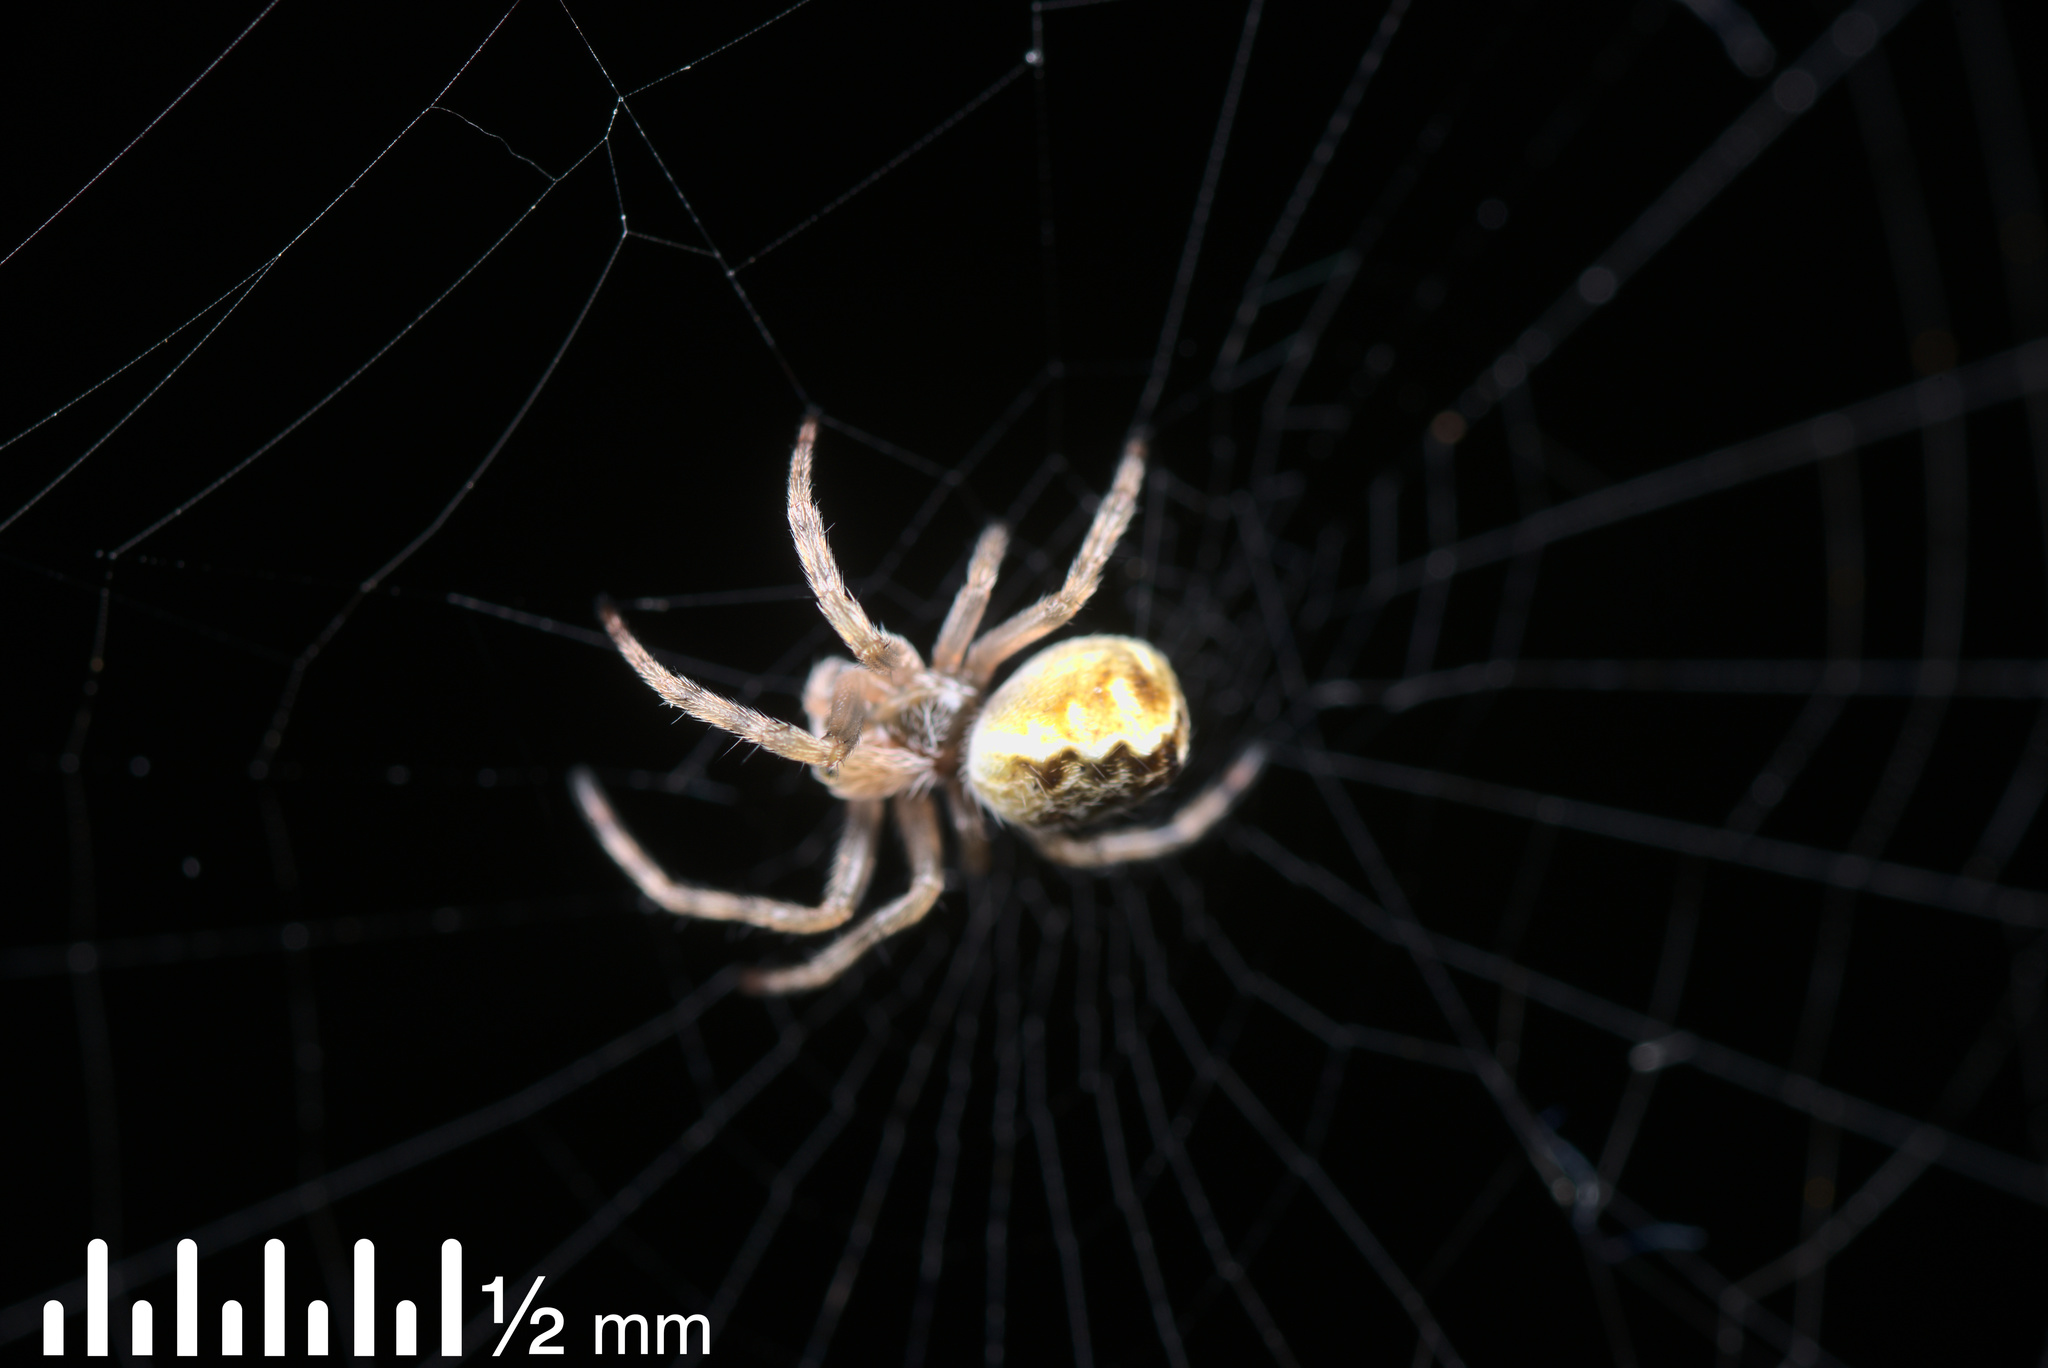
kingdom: Animalia
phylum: Arthropoda
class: Arachnida
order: Araneae
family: Araneidae
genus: Salsa
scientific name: Salsa fuliginata
